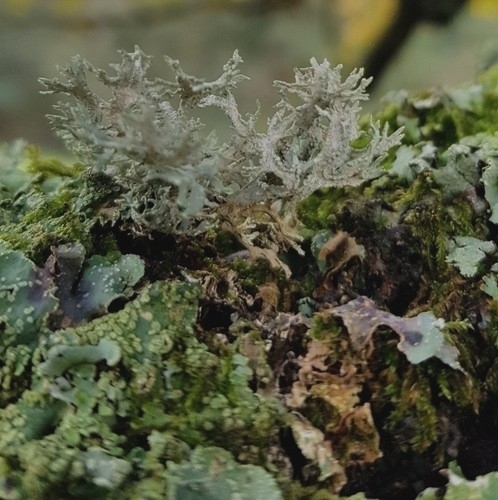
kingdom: Fungi
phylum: Ascomycota
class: Lecanoromycetes
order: Lecanorales
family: Parmeliaceae
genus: Evernia
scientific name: Evernia prunastri
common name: Oak moss
